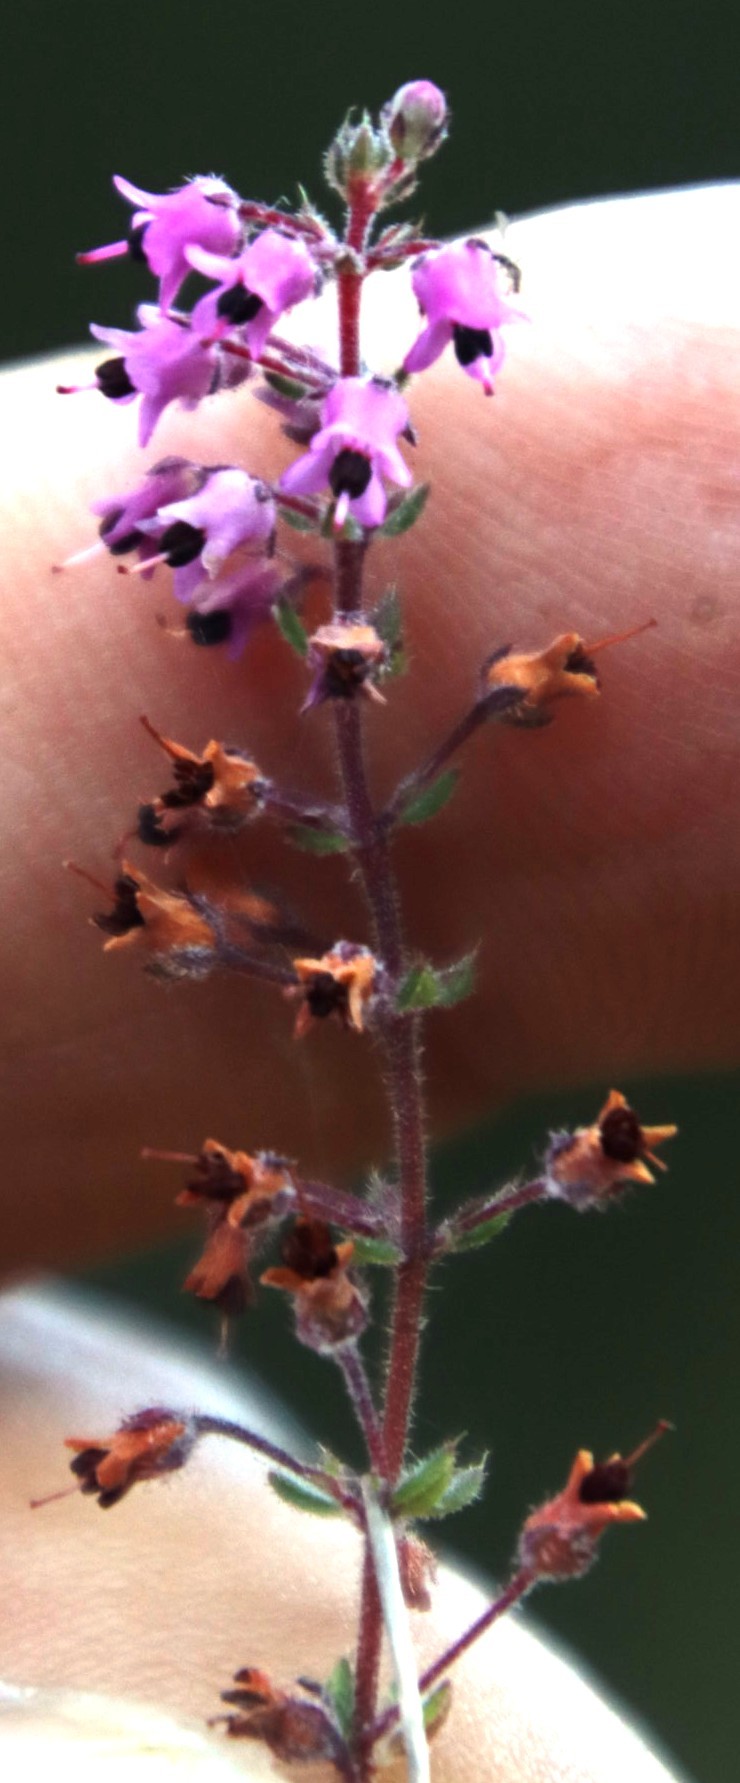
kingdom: Plantae
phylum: Tracheophyta
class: Magnoliopsida
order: Ericales
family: Ericaceae
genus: Erica
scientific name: Erica thimifolia
